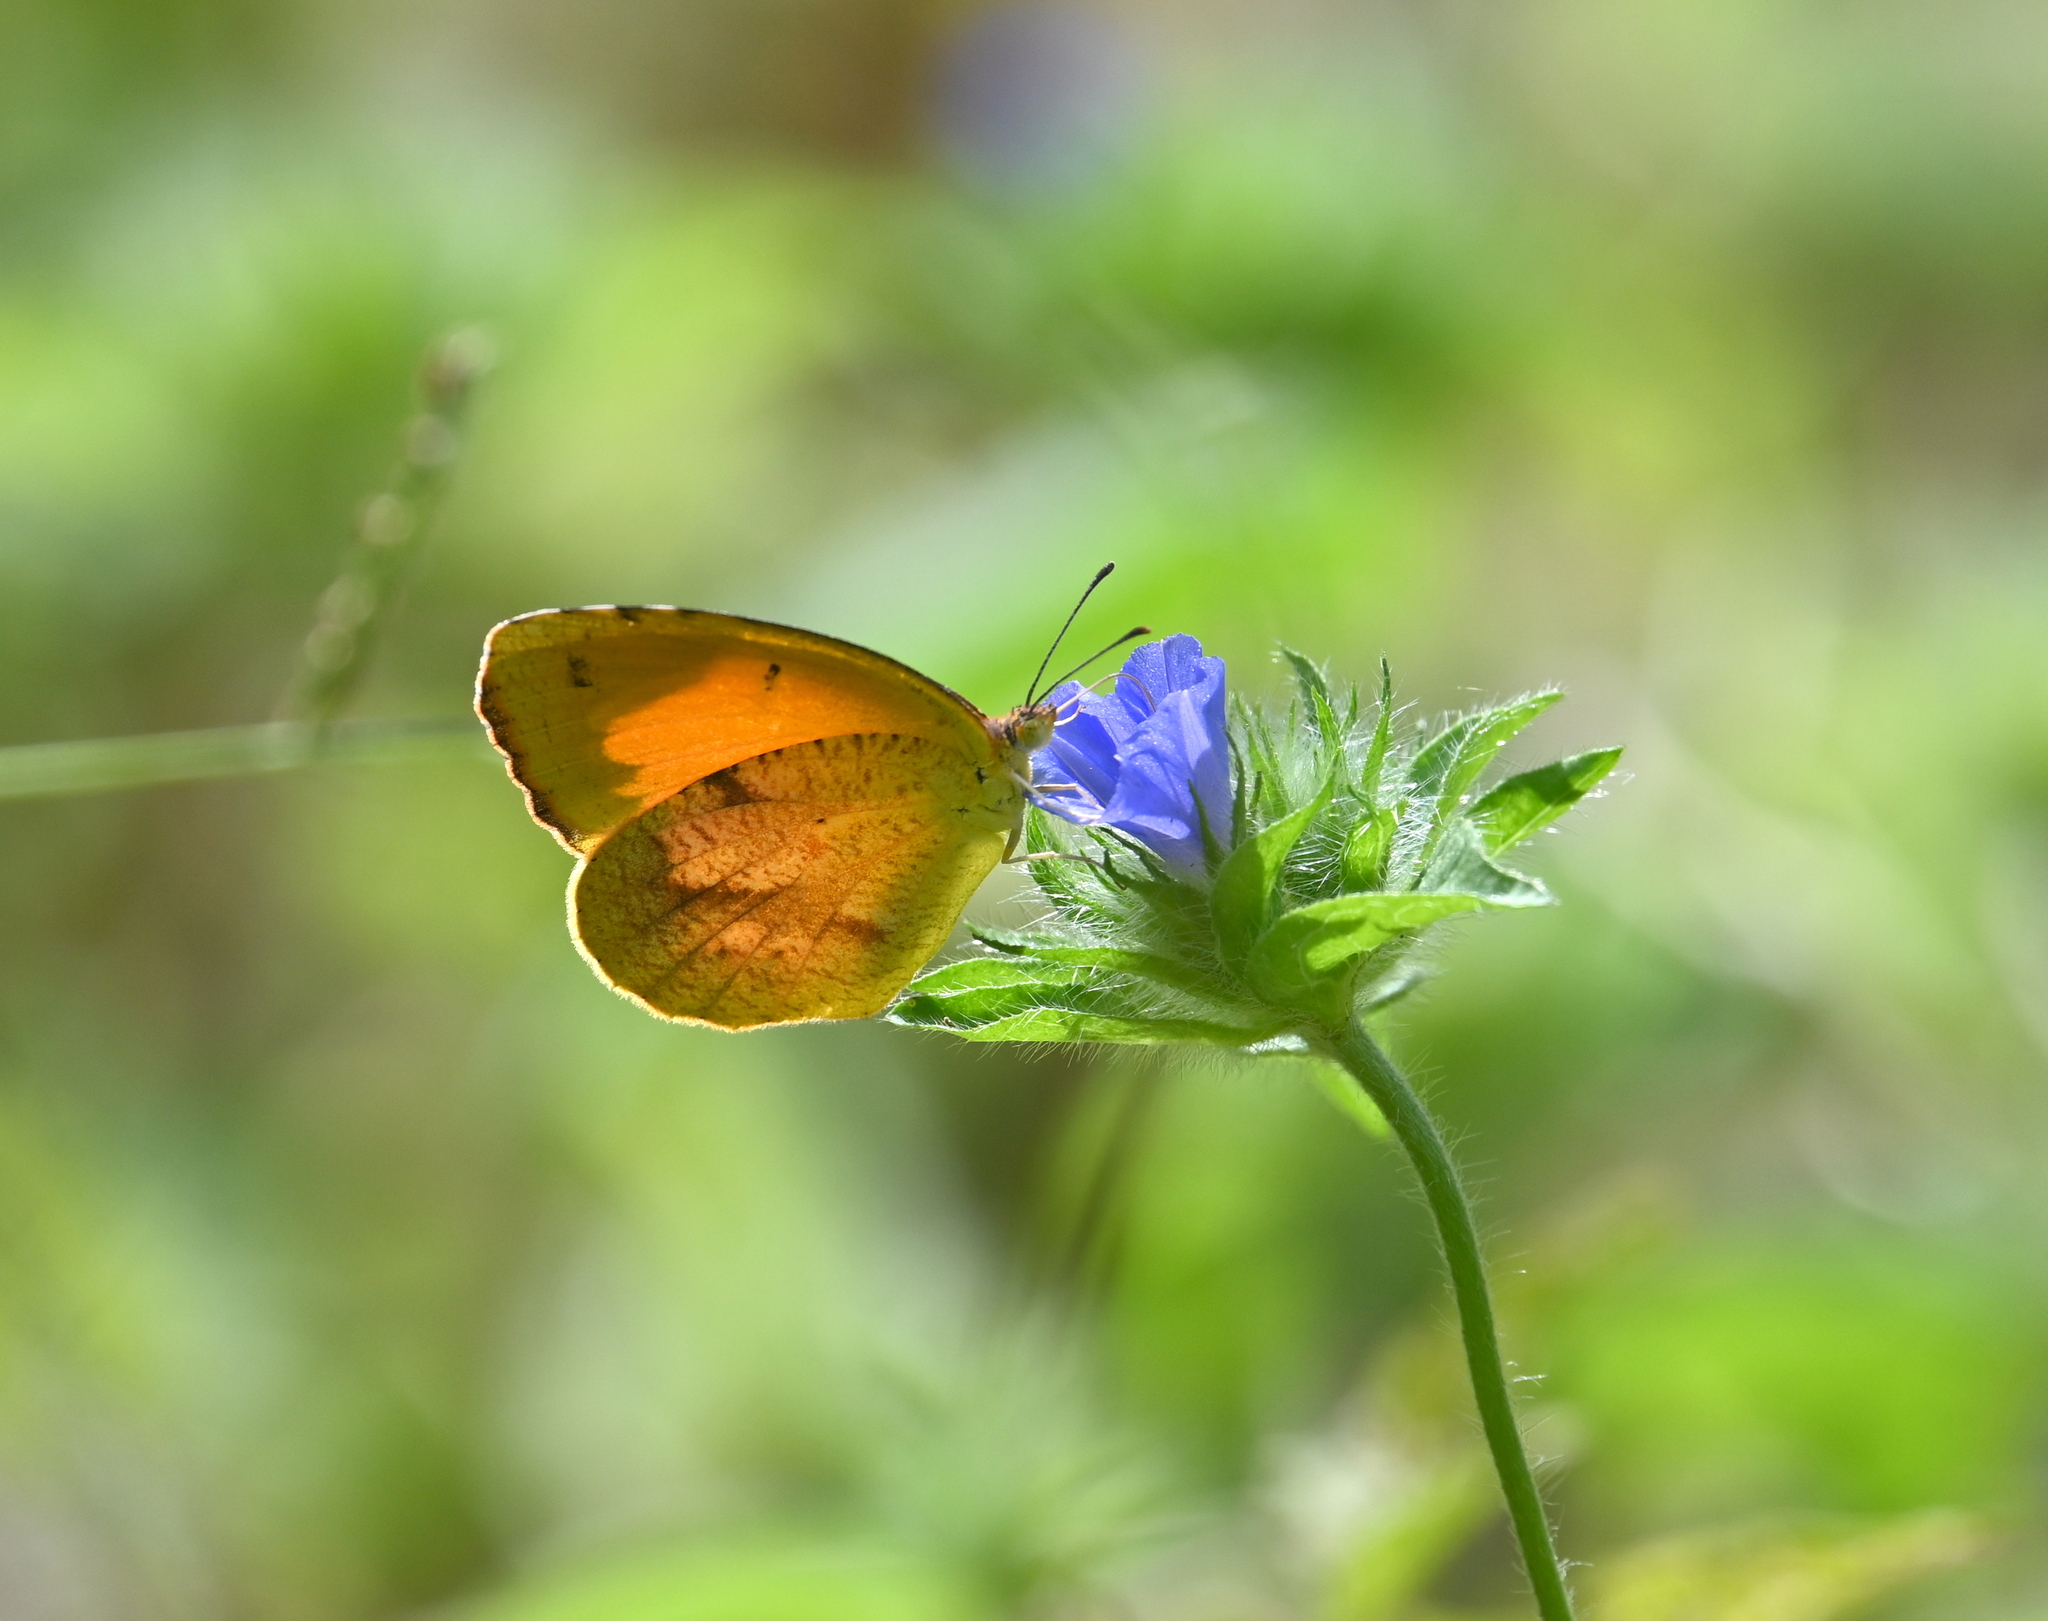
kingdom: Animalia
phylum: Arthropoda
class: Insecta
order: Lepidoptera
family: Pieridae
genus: Abaeis
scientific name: Abaeis nicippe
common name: Sleepy orange
